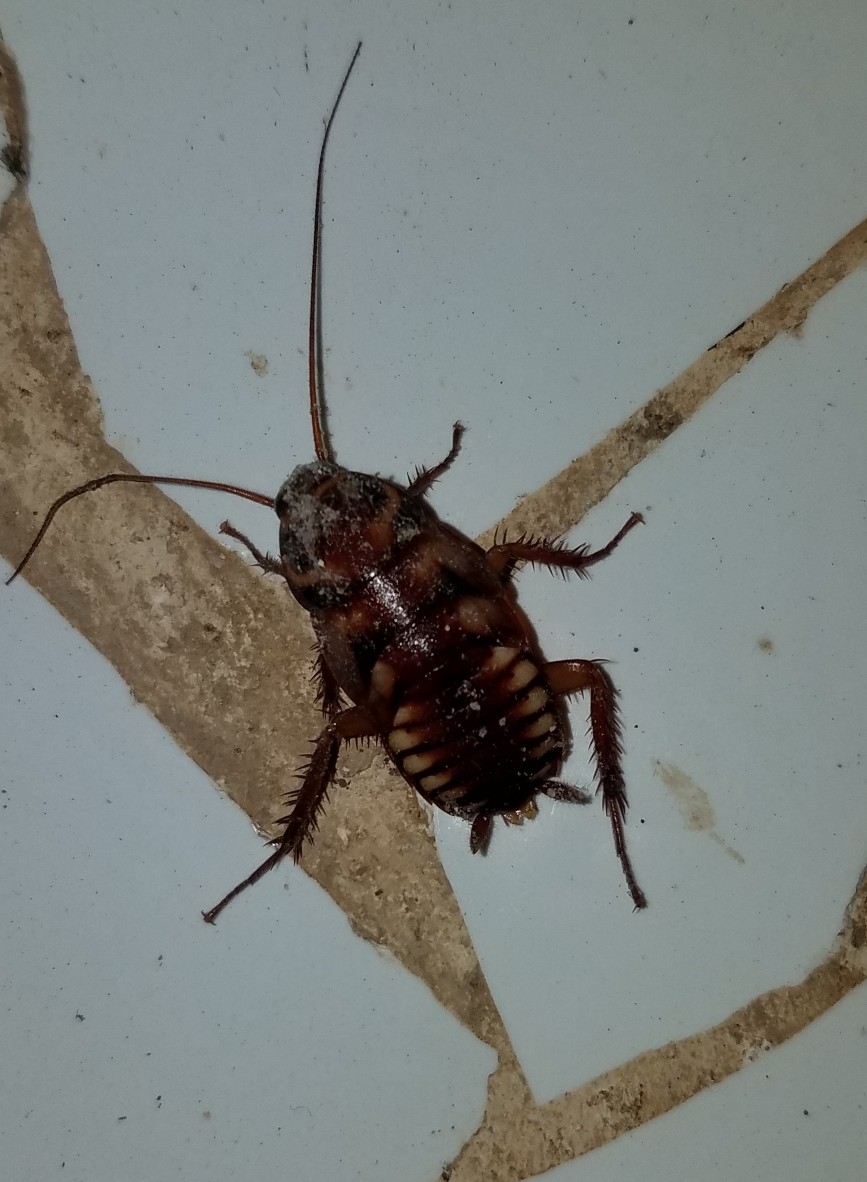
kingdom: Animalia
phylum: Arthropoda
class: Insecta
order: Blattodea
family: Blattidae
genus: Periplaneta
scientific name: Periplaneta australasiae
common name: Australian cockroach
